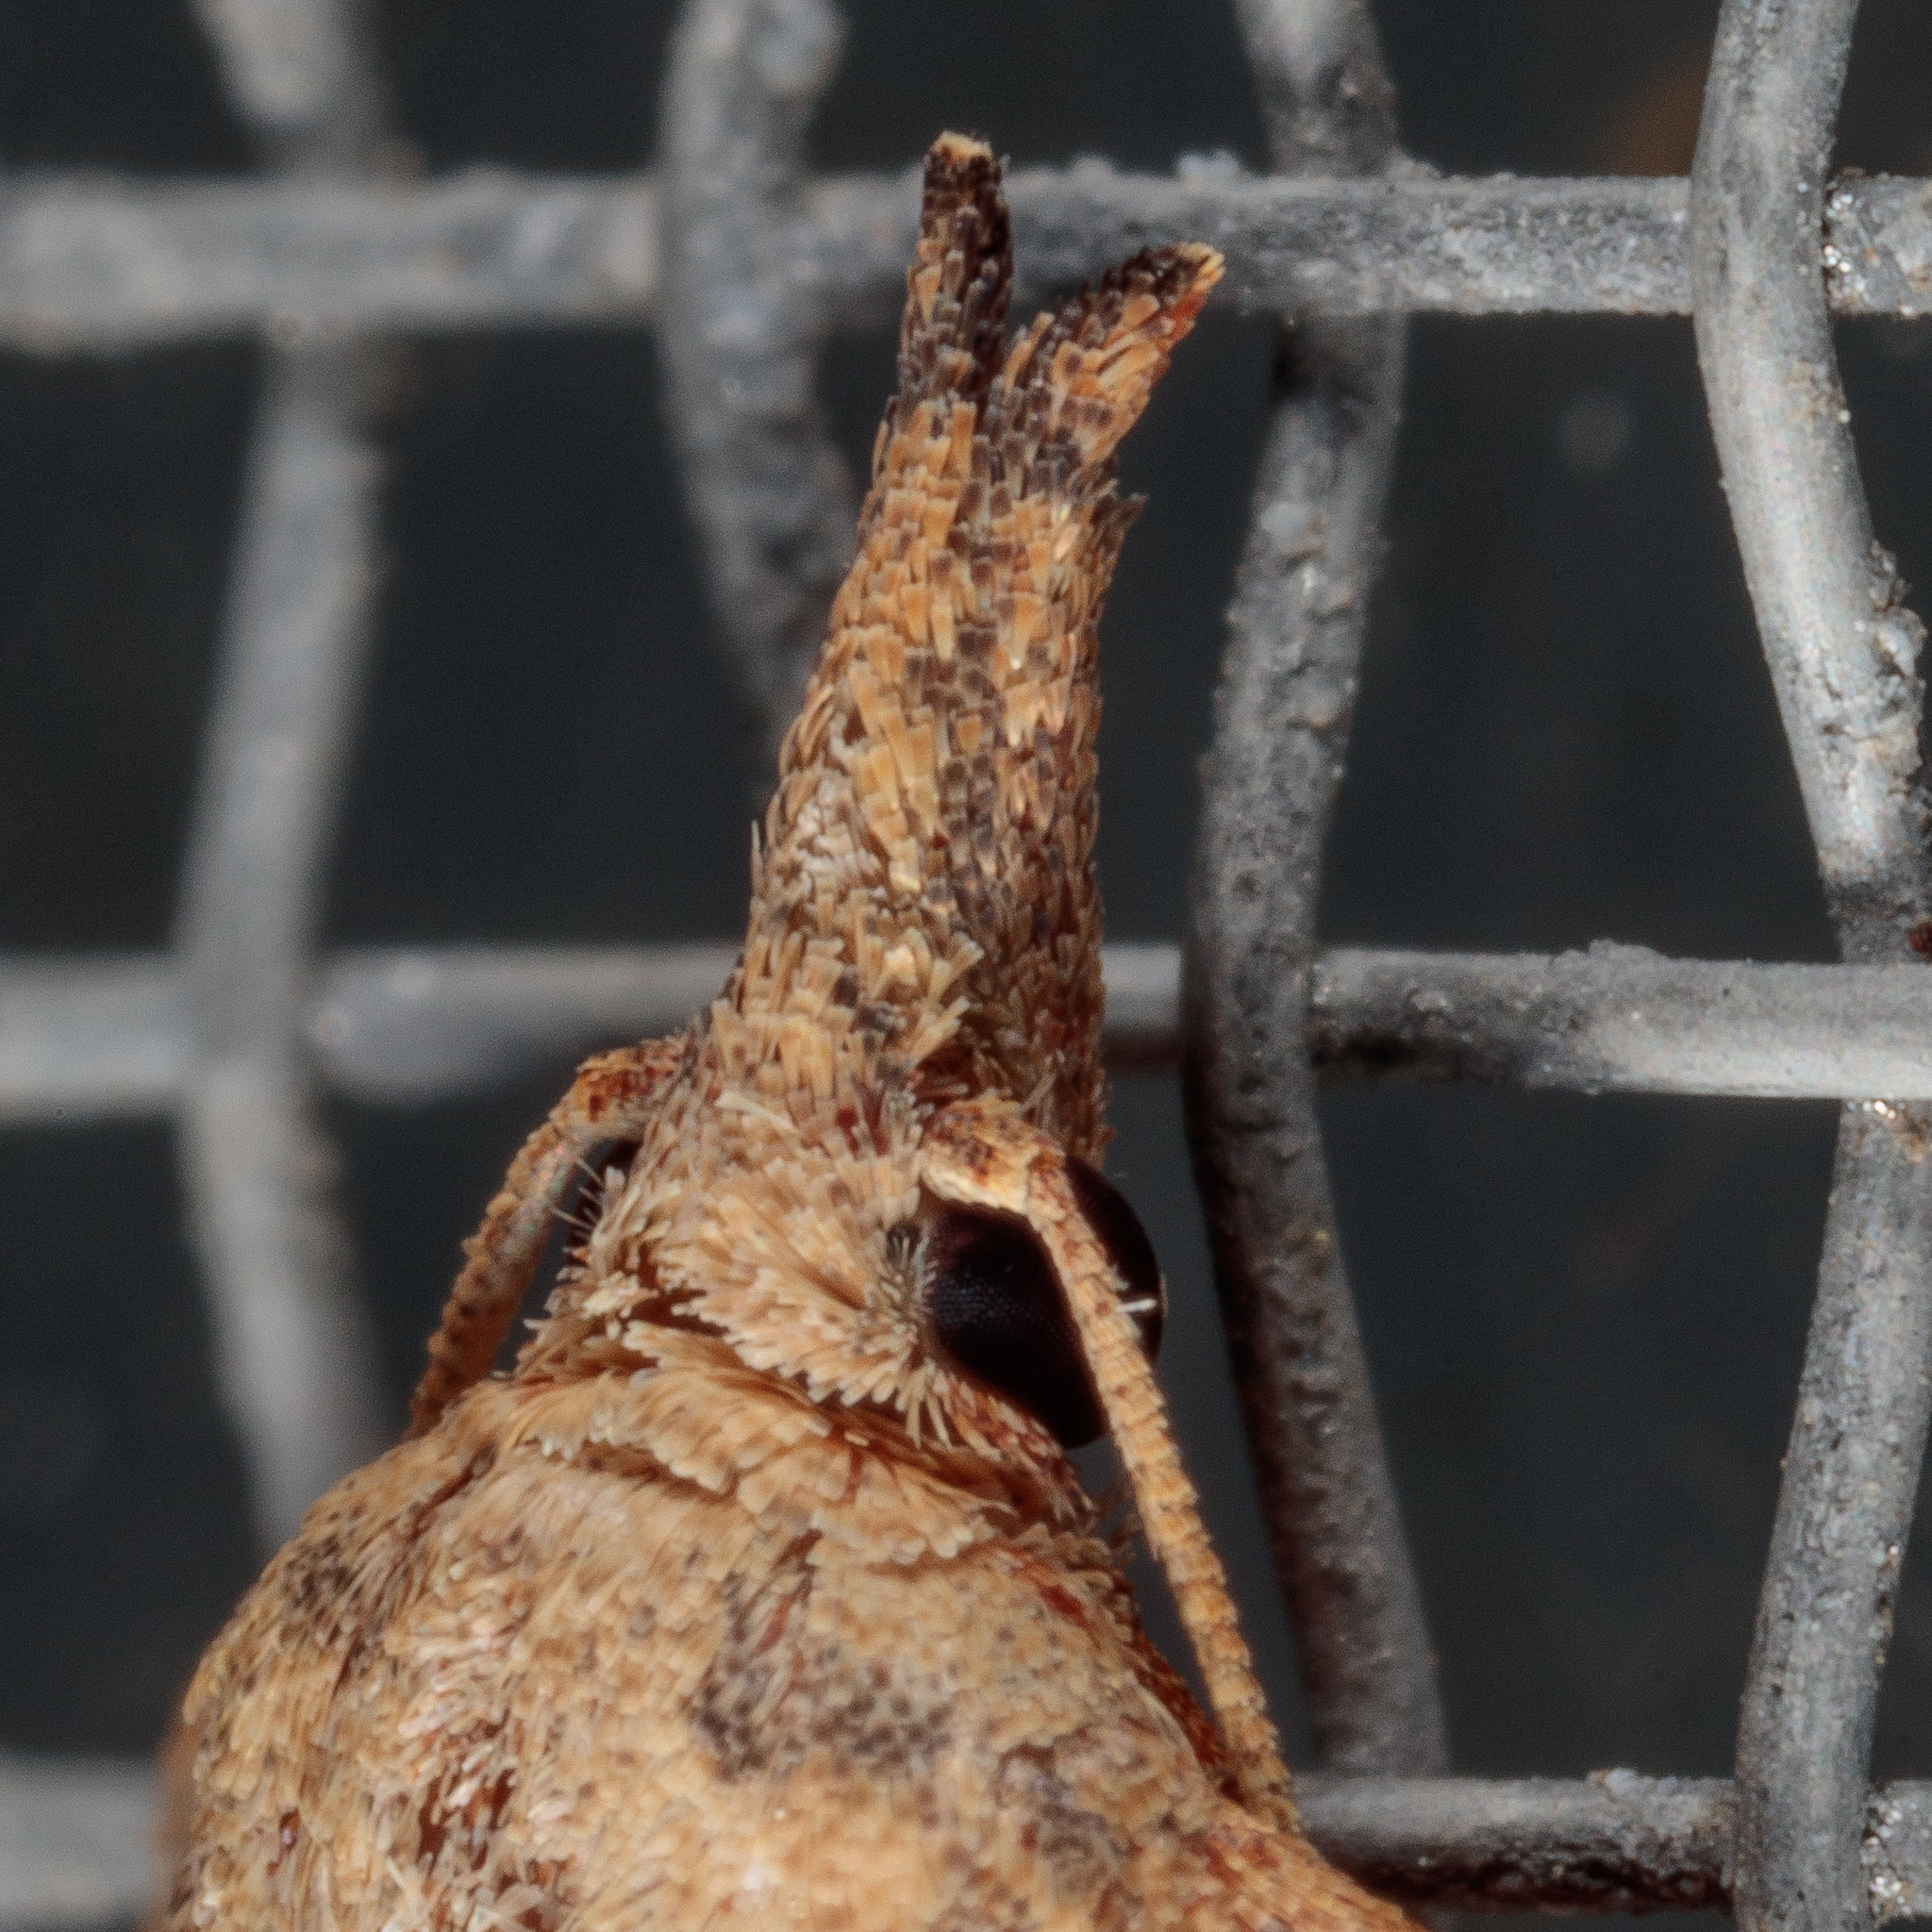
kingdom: Animalia
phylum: Arthropoda
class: Insecta
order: Lepidoptera
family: Tortricidae
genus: Platynota
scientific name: Platynota rostrana
